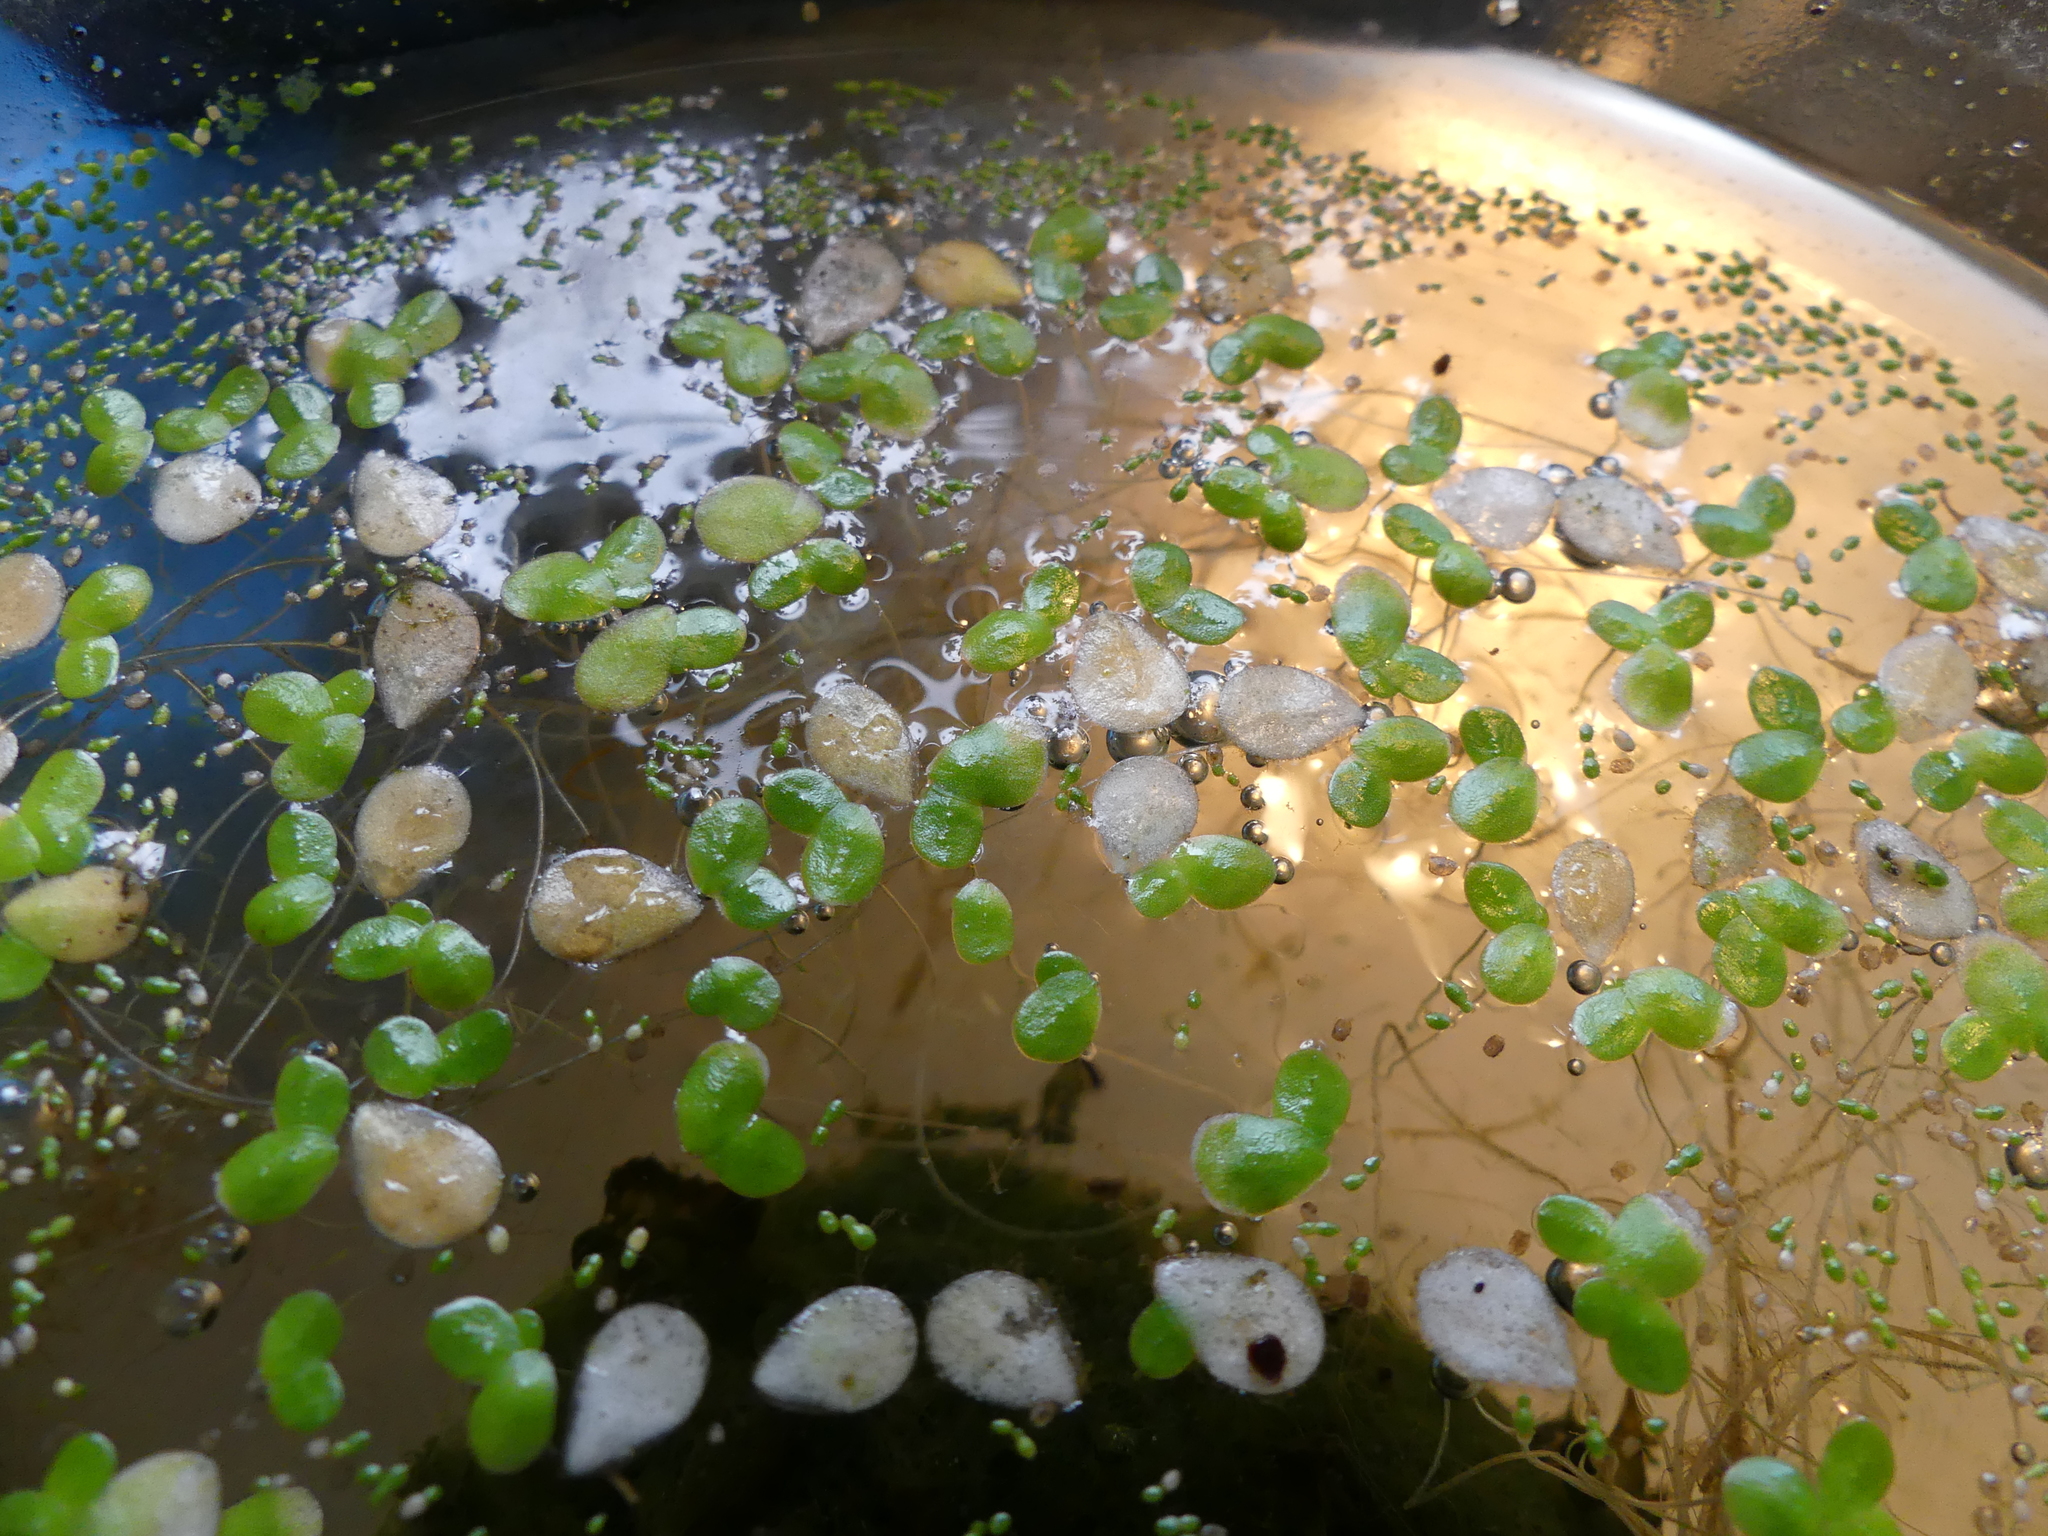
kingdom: Plantae
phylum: Tracheophyta
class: Liliopsida
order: Alismatales
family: Araceae
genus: Wolffia
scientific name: Wolffia brasiliensis
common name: Brazilian watermeal
